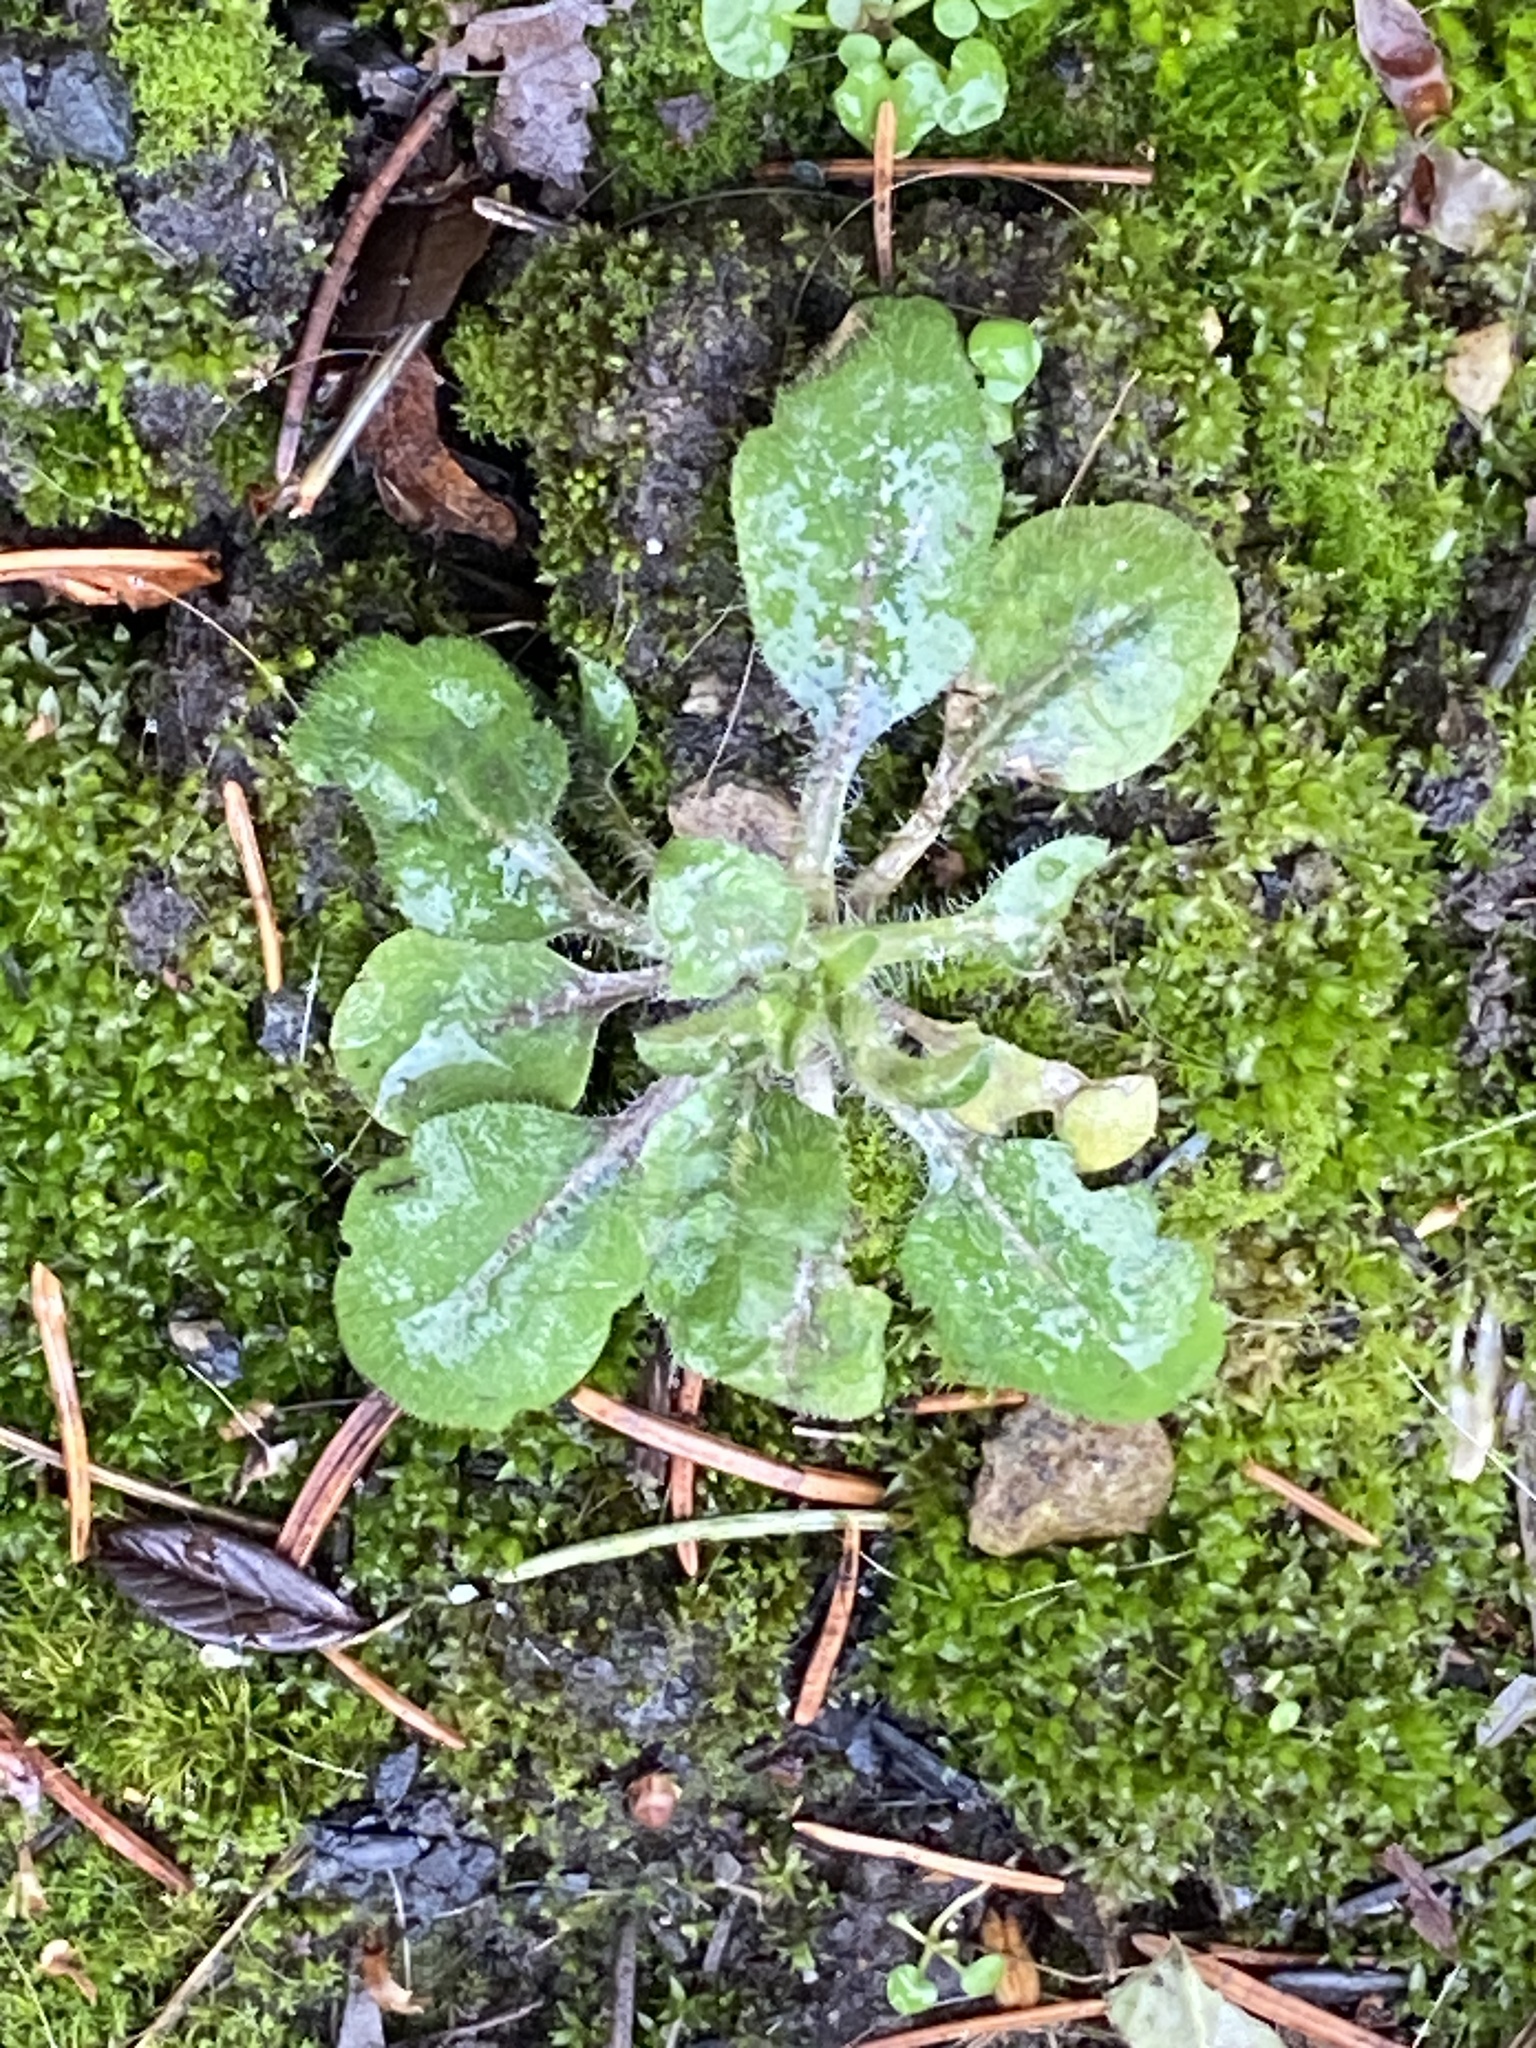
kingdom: Plantae
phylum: Tracheophyta
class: Magnoliopsida
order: Asterales
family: Asteraceae
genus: Erigeron
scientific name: Erigeron canadensis
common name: Canadian fleabane
